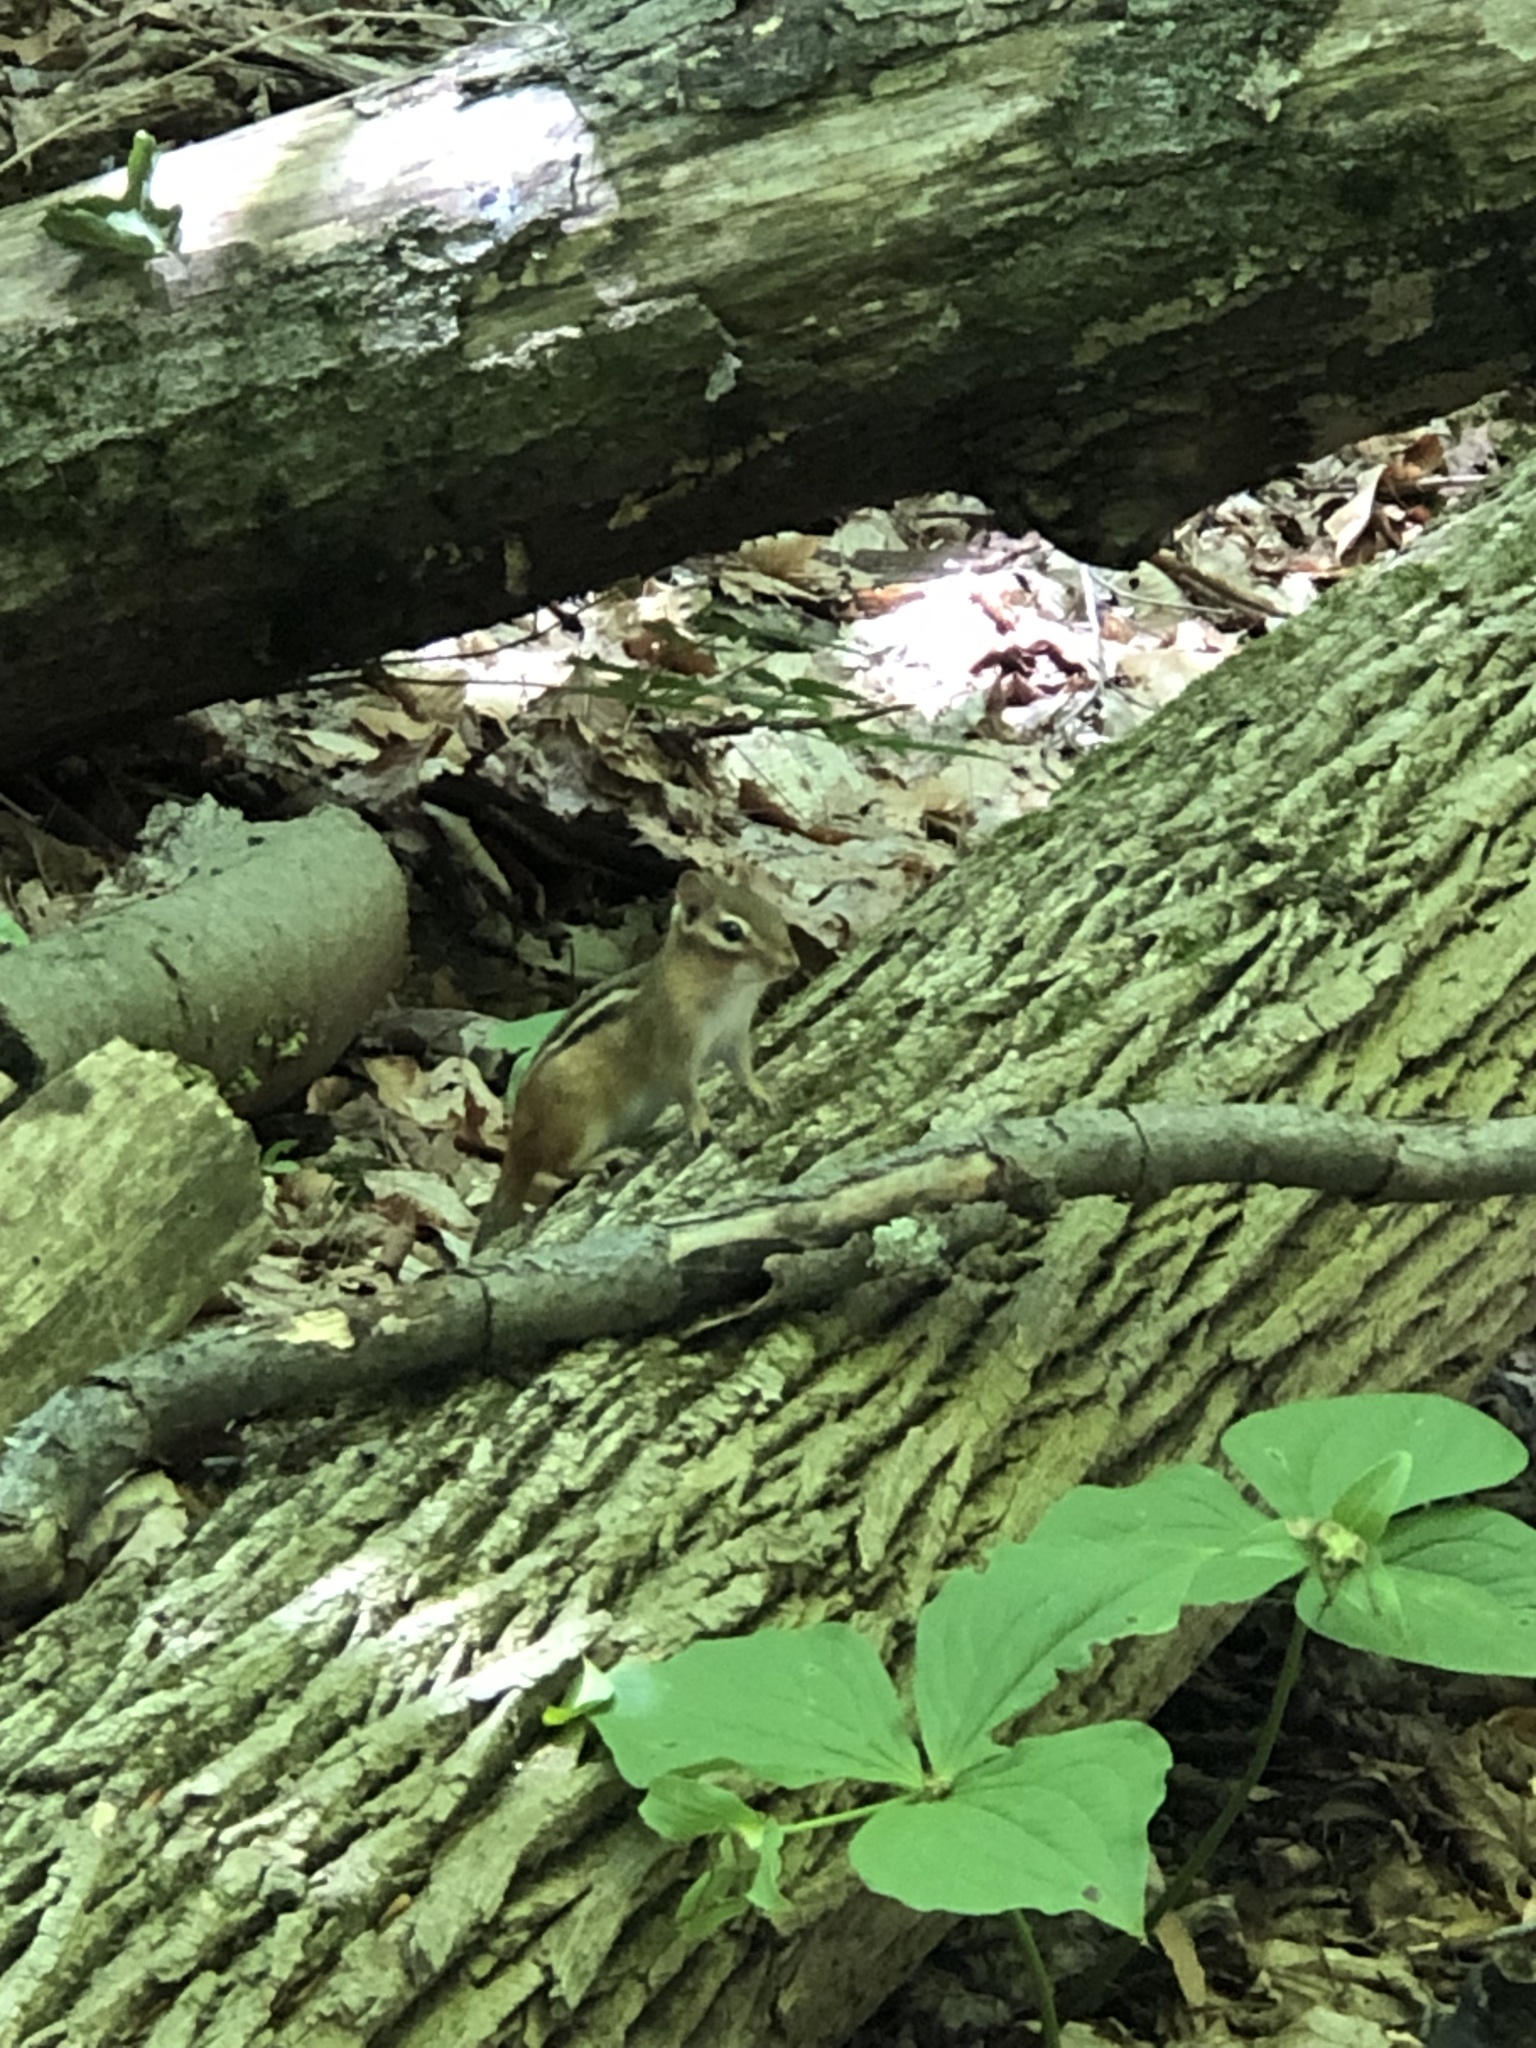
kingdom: Animalia
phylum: Chordata
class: Mammalia
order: Rodentia
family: Sciuridae
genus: Tamias
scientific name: Tamias striatus
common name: Eastern chipmunk
